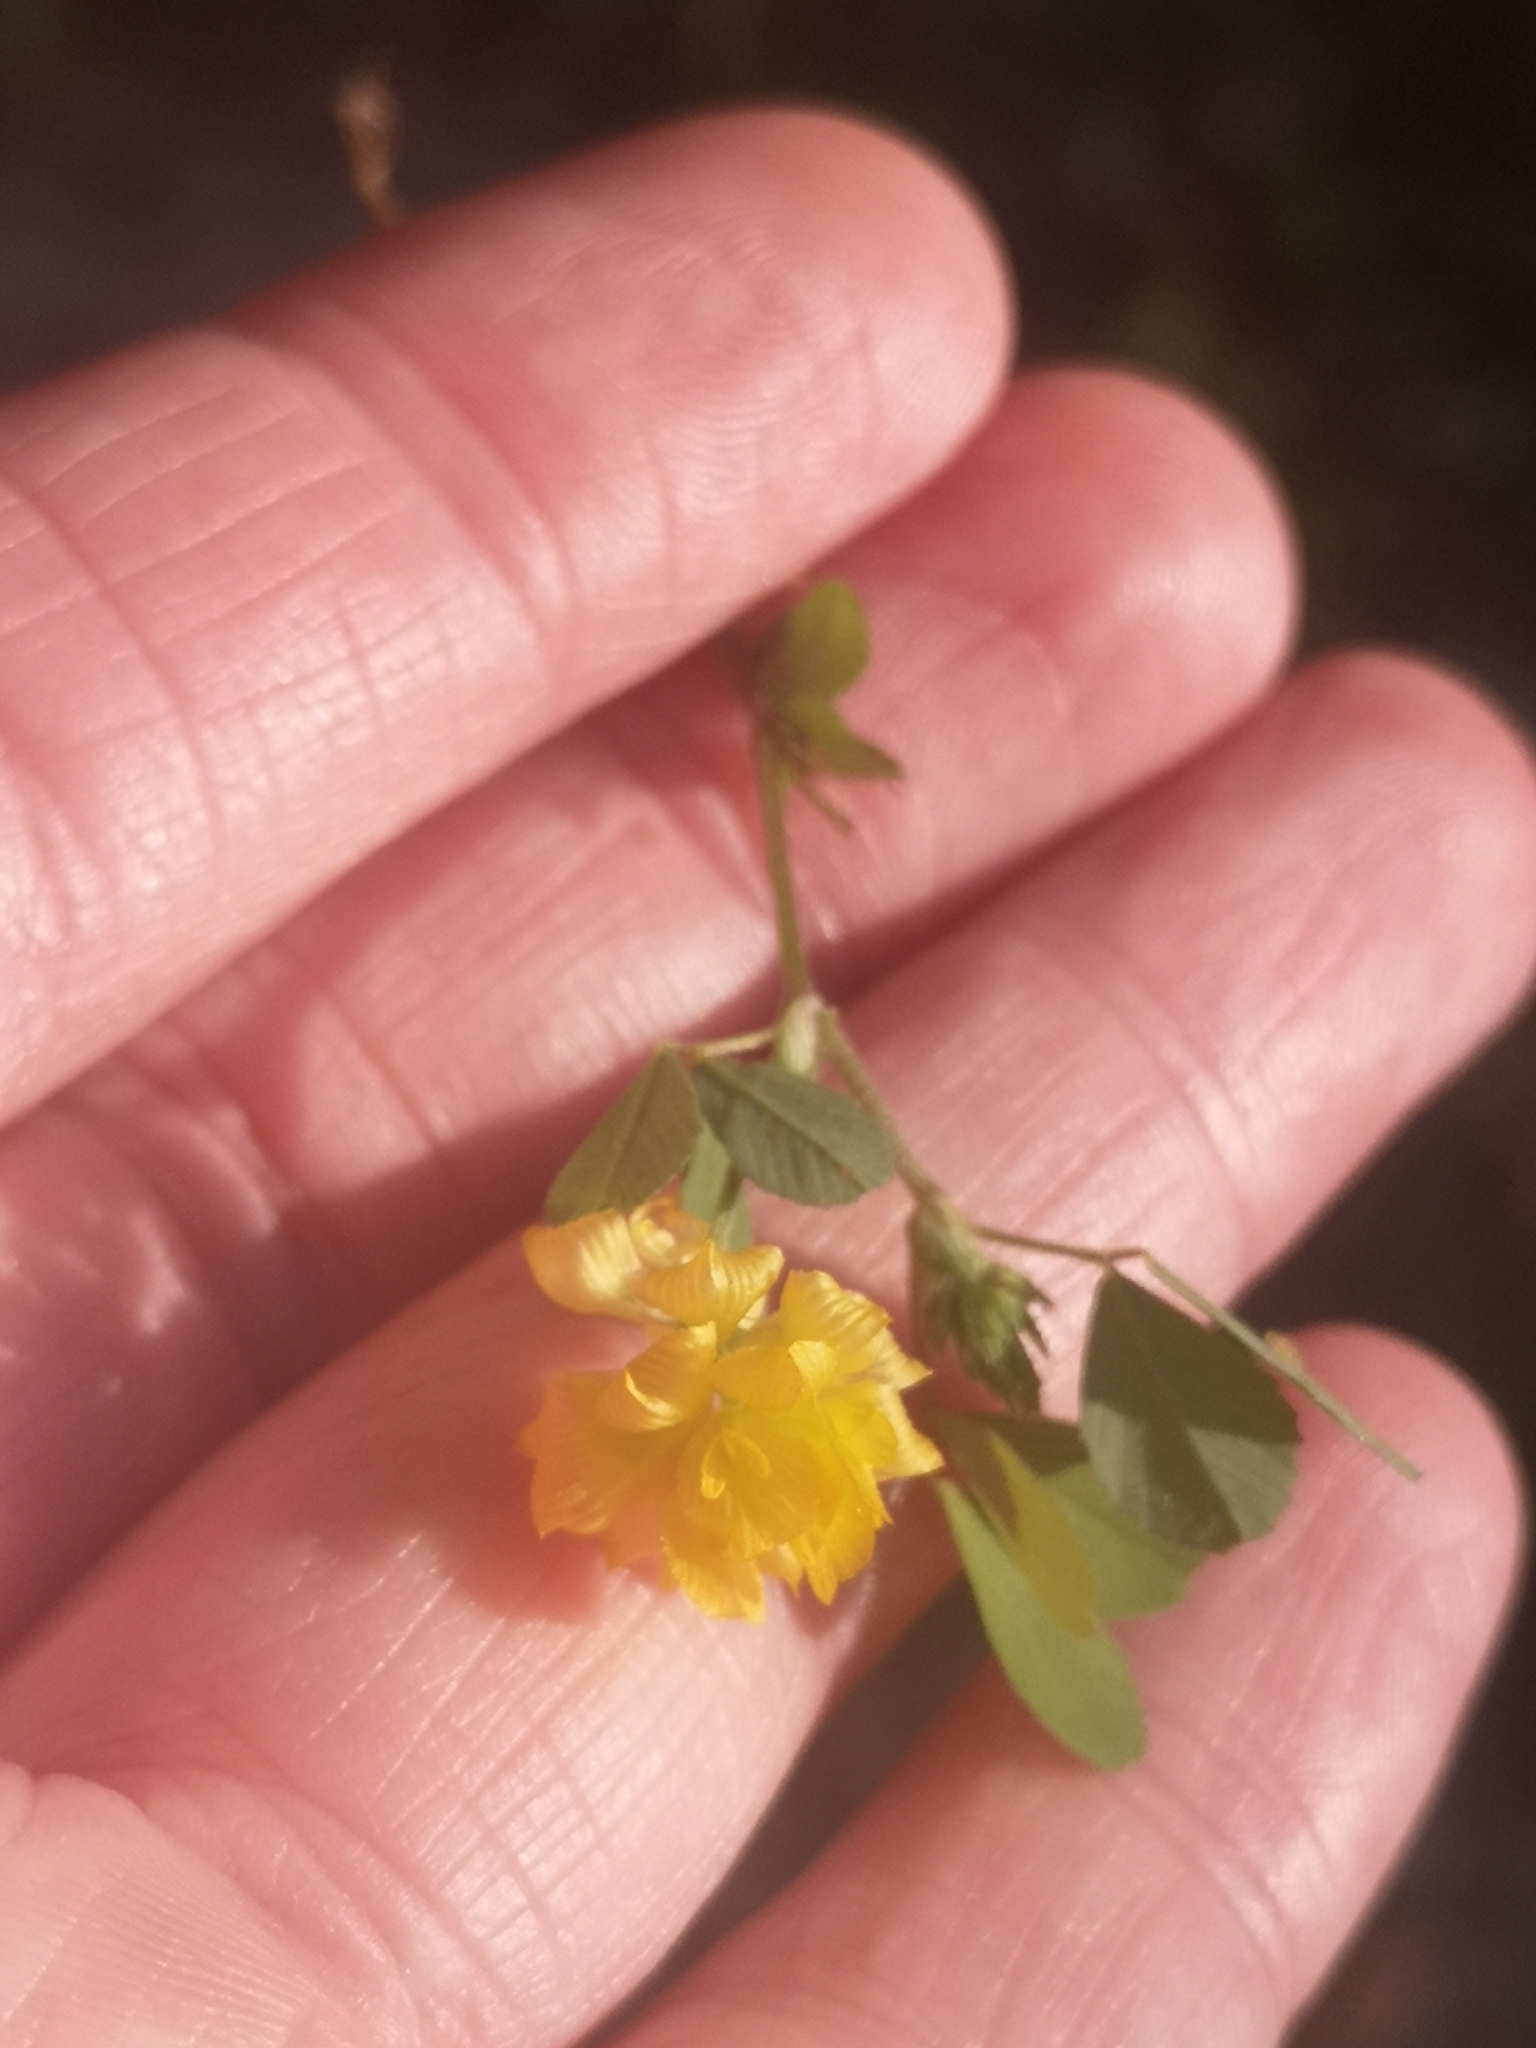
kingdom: Plantae
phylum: Tracheophyta
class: Magnoliopsida
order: Fabales
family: Fabaceae
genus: Trifolium
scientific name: Trifolium campestre
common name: Field clover
